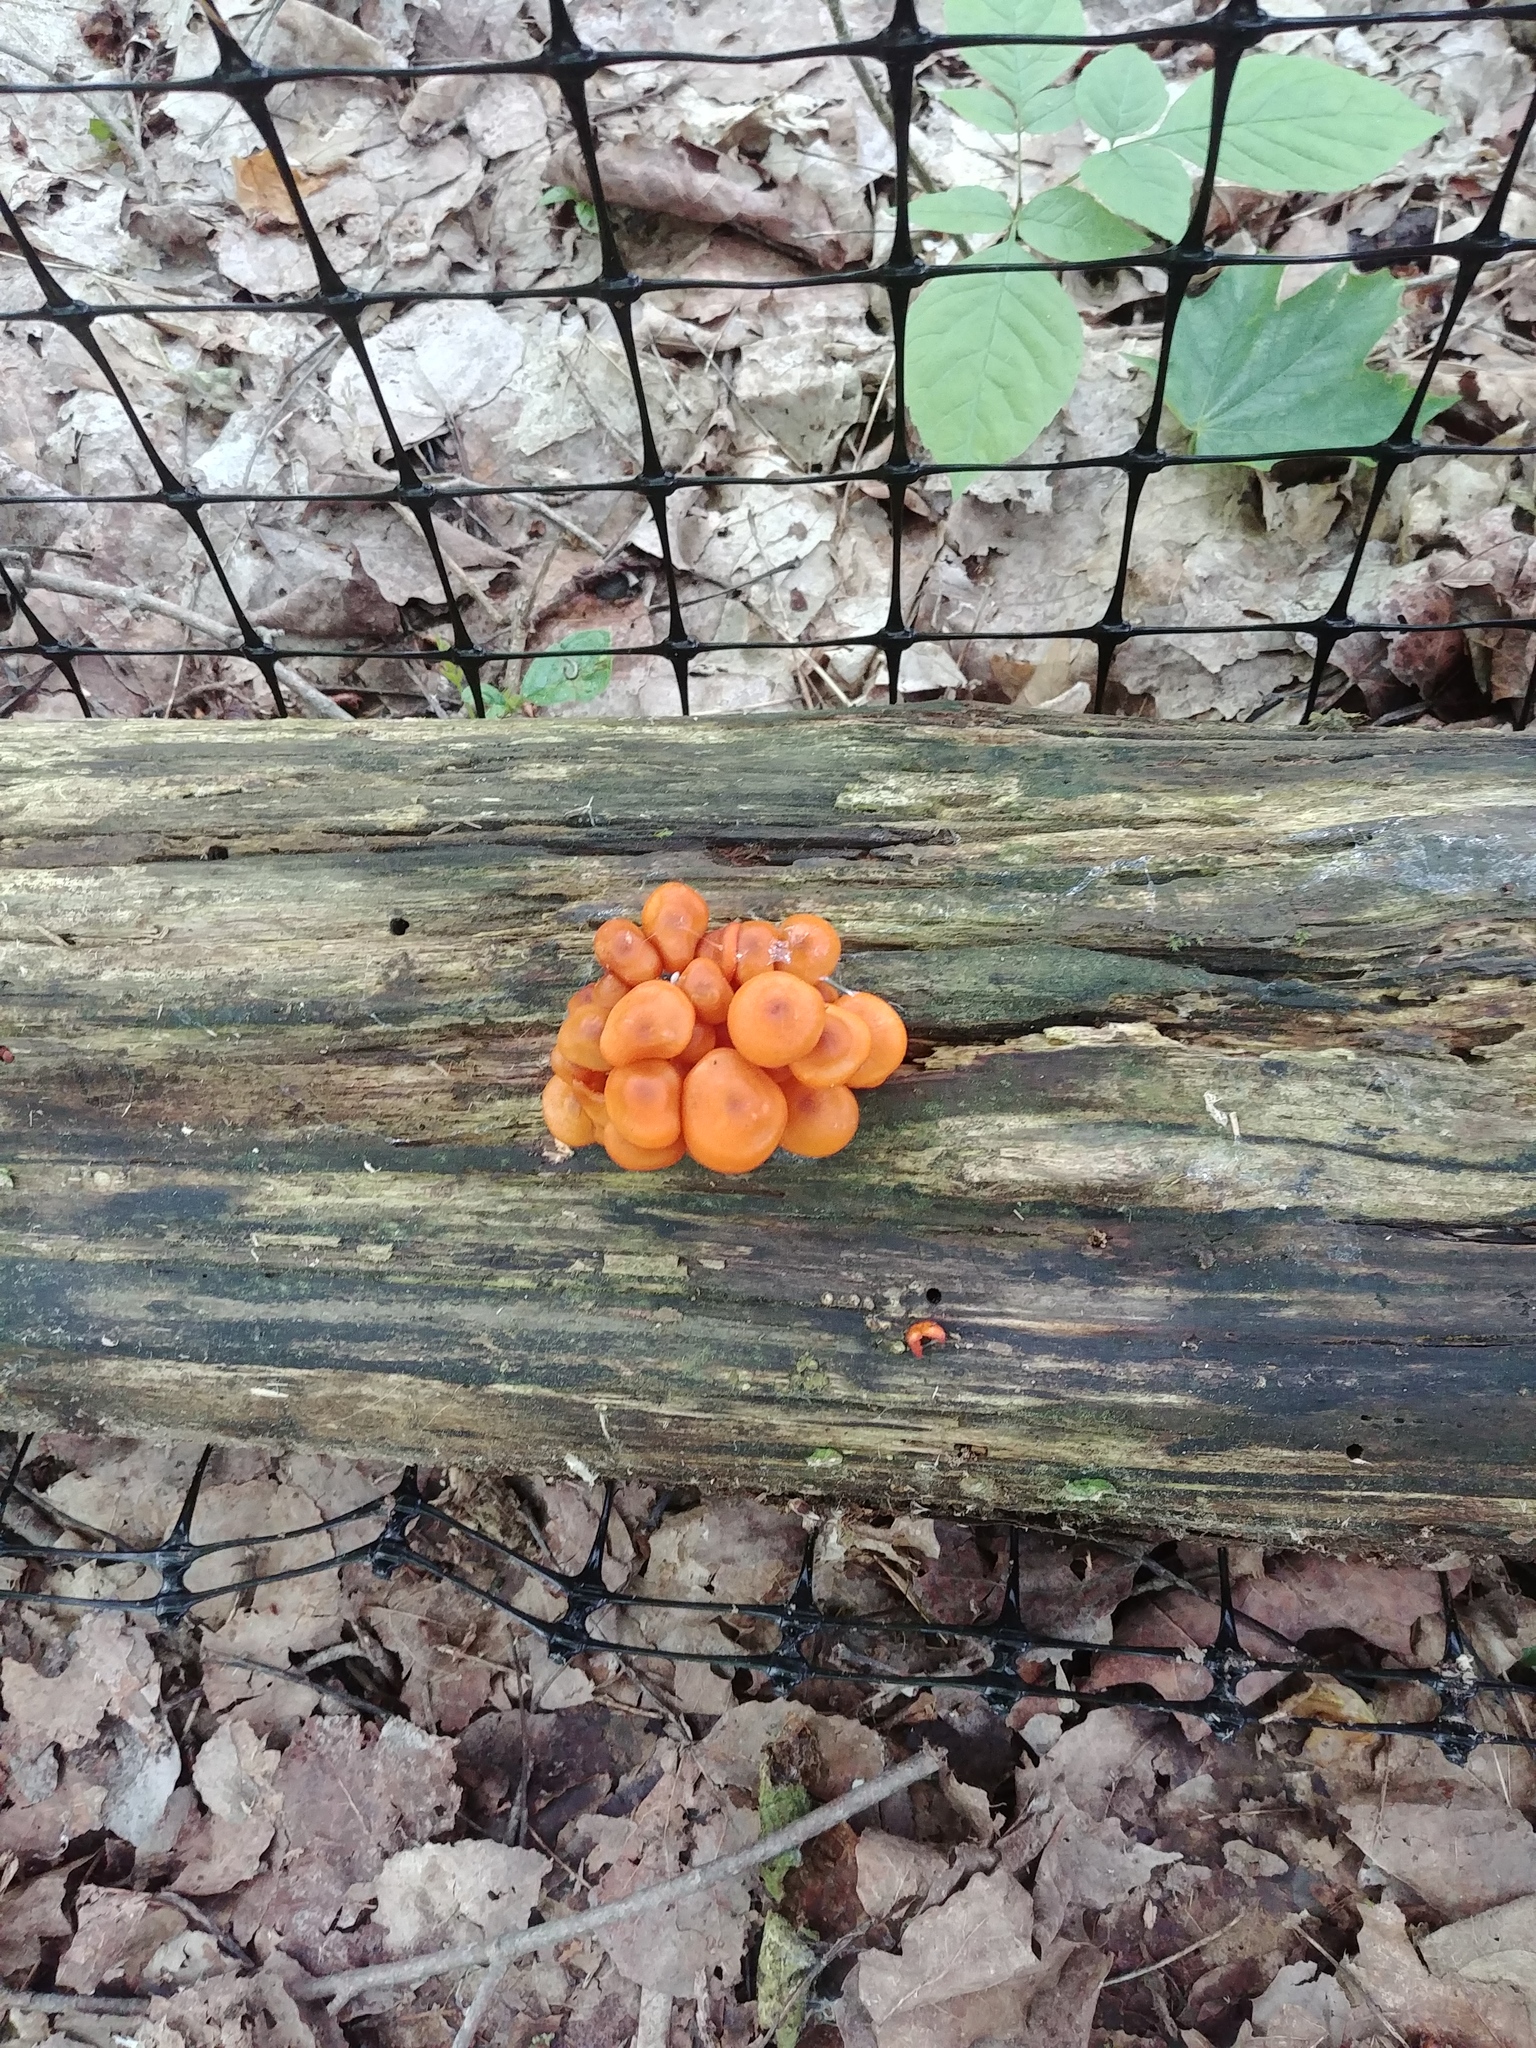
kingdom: Fungi
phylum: Basidiomycota
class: Agaricomycetes
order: Agaricales
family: Mycenaceae
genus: Mycena
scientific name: Mycena leaiana
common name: Orange mycena
